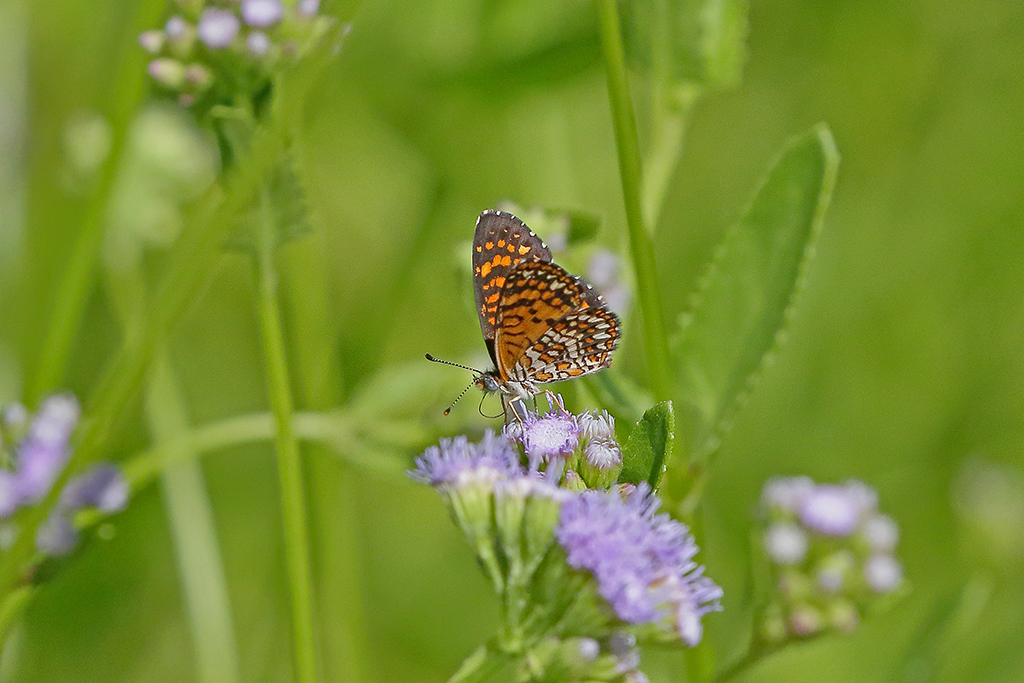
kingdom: Animalia
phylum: Arthropoda
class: Insecta
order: Lepidoptera
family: Nymphalidae
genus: Texola
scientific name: Texola elada
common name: Elada checkerspot
